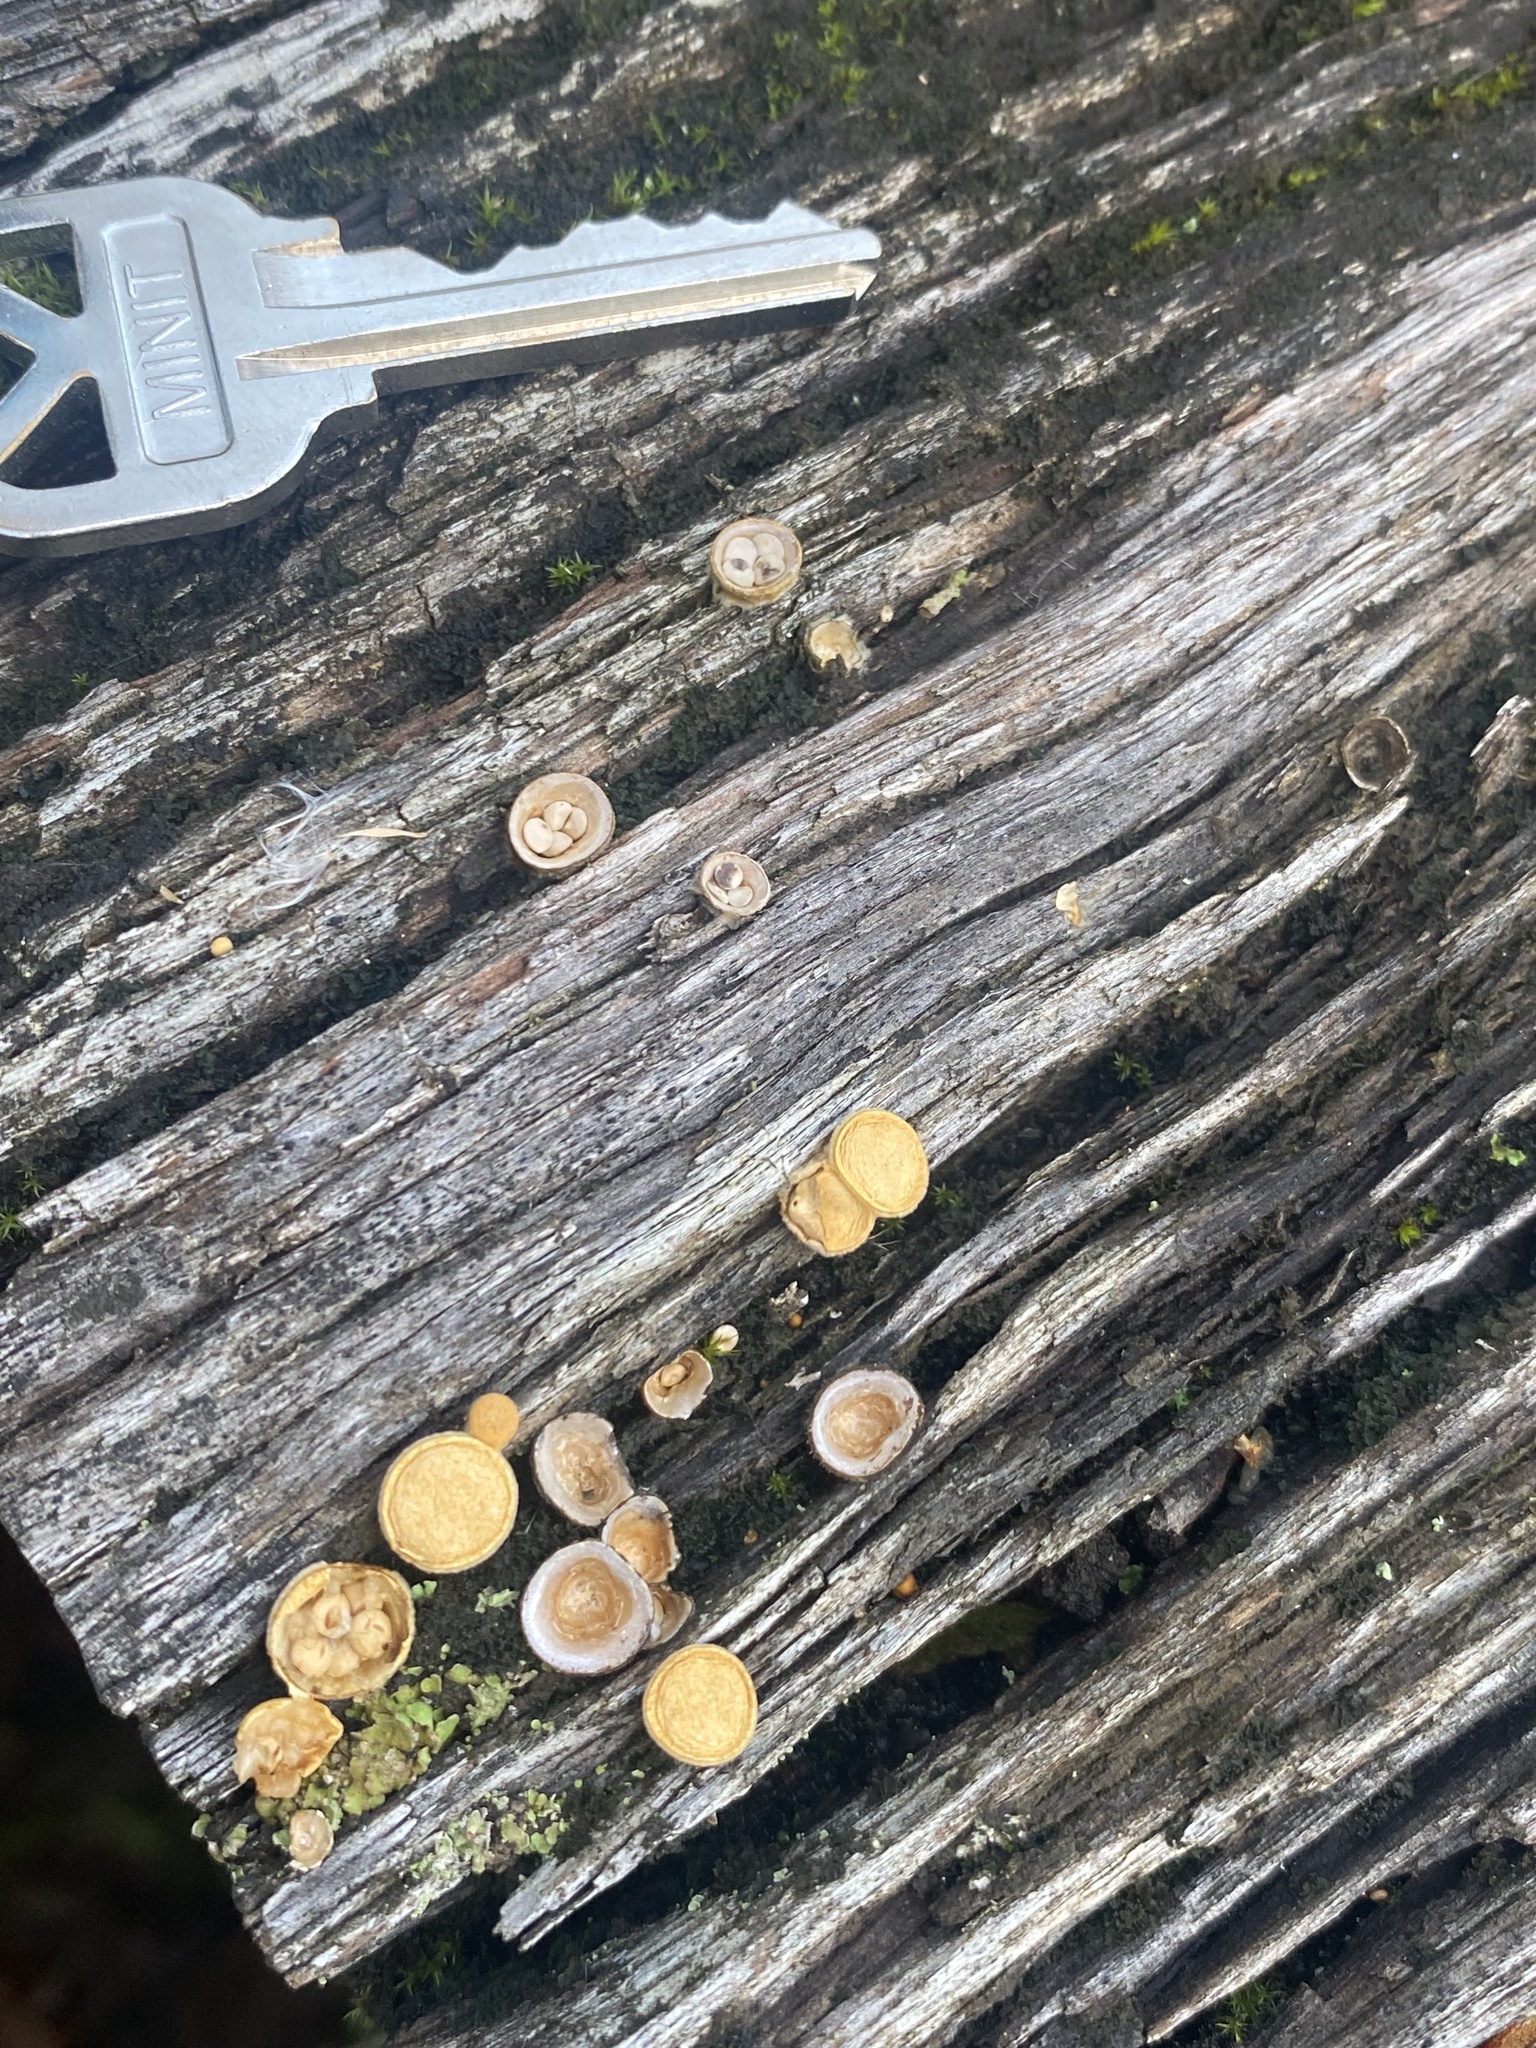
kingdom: Fungi
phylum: Basidiomycota
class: Agaricomycetes
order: Agaricales
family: Nidulariaceae
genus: Crucibulum
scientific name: Crucibulum simile
